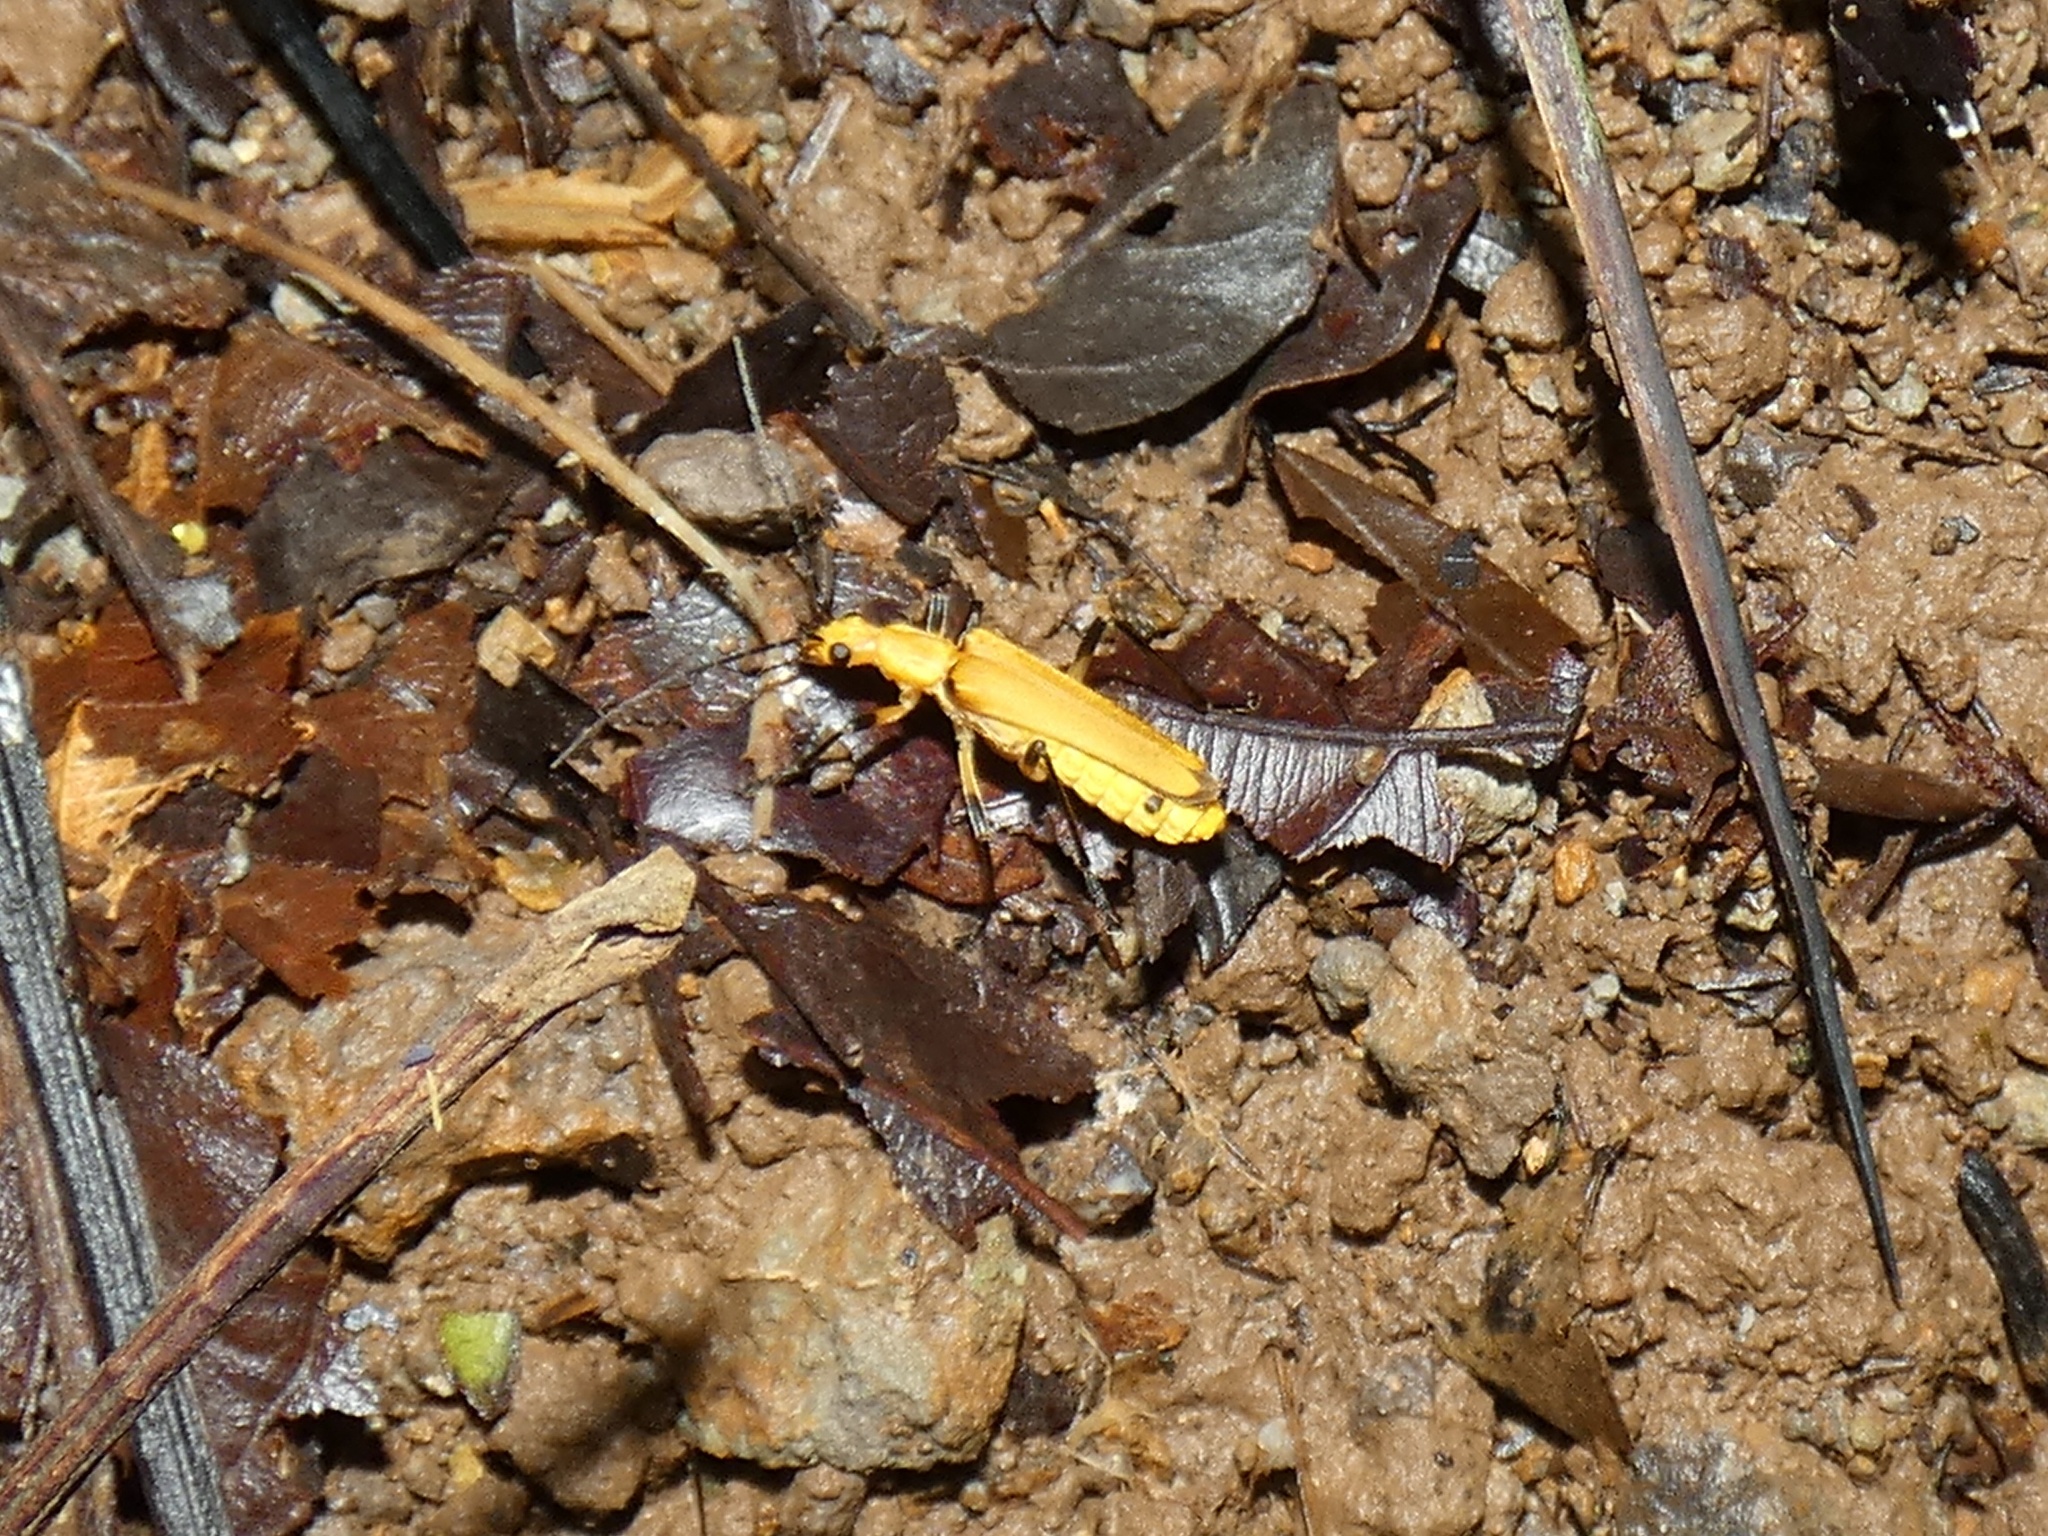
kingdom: Animalia
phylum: Arthropoda
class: Insecta
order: Coleoptera
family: Cantharidae
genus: Chauliognathus
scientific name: Chauliognathus
